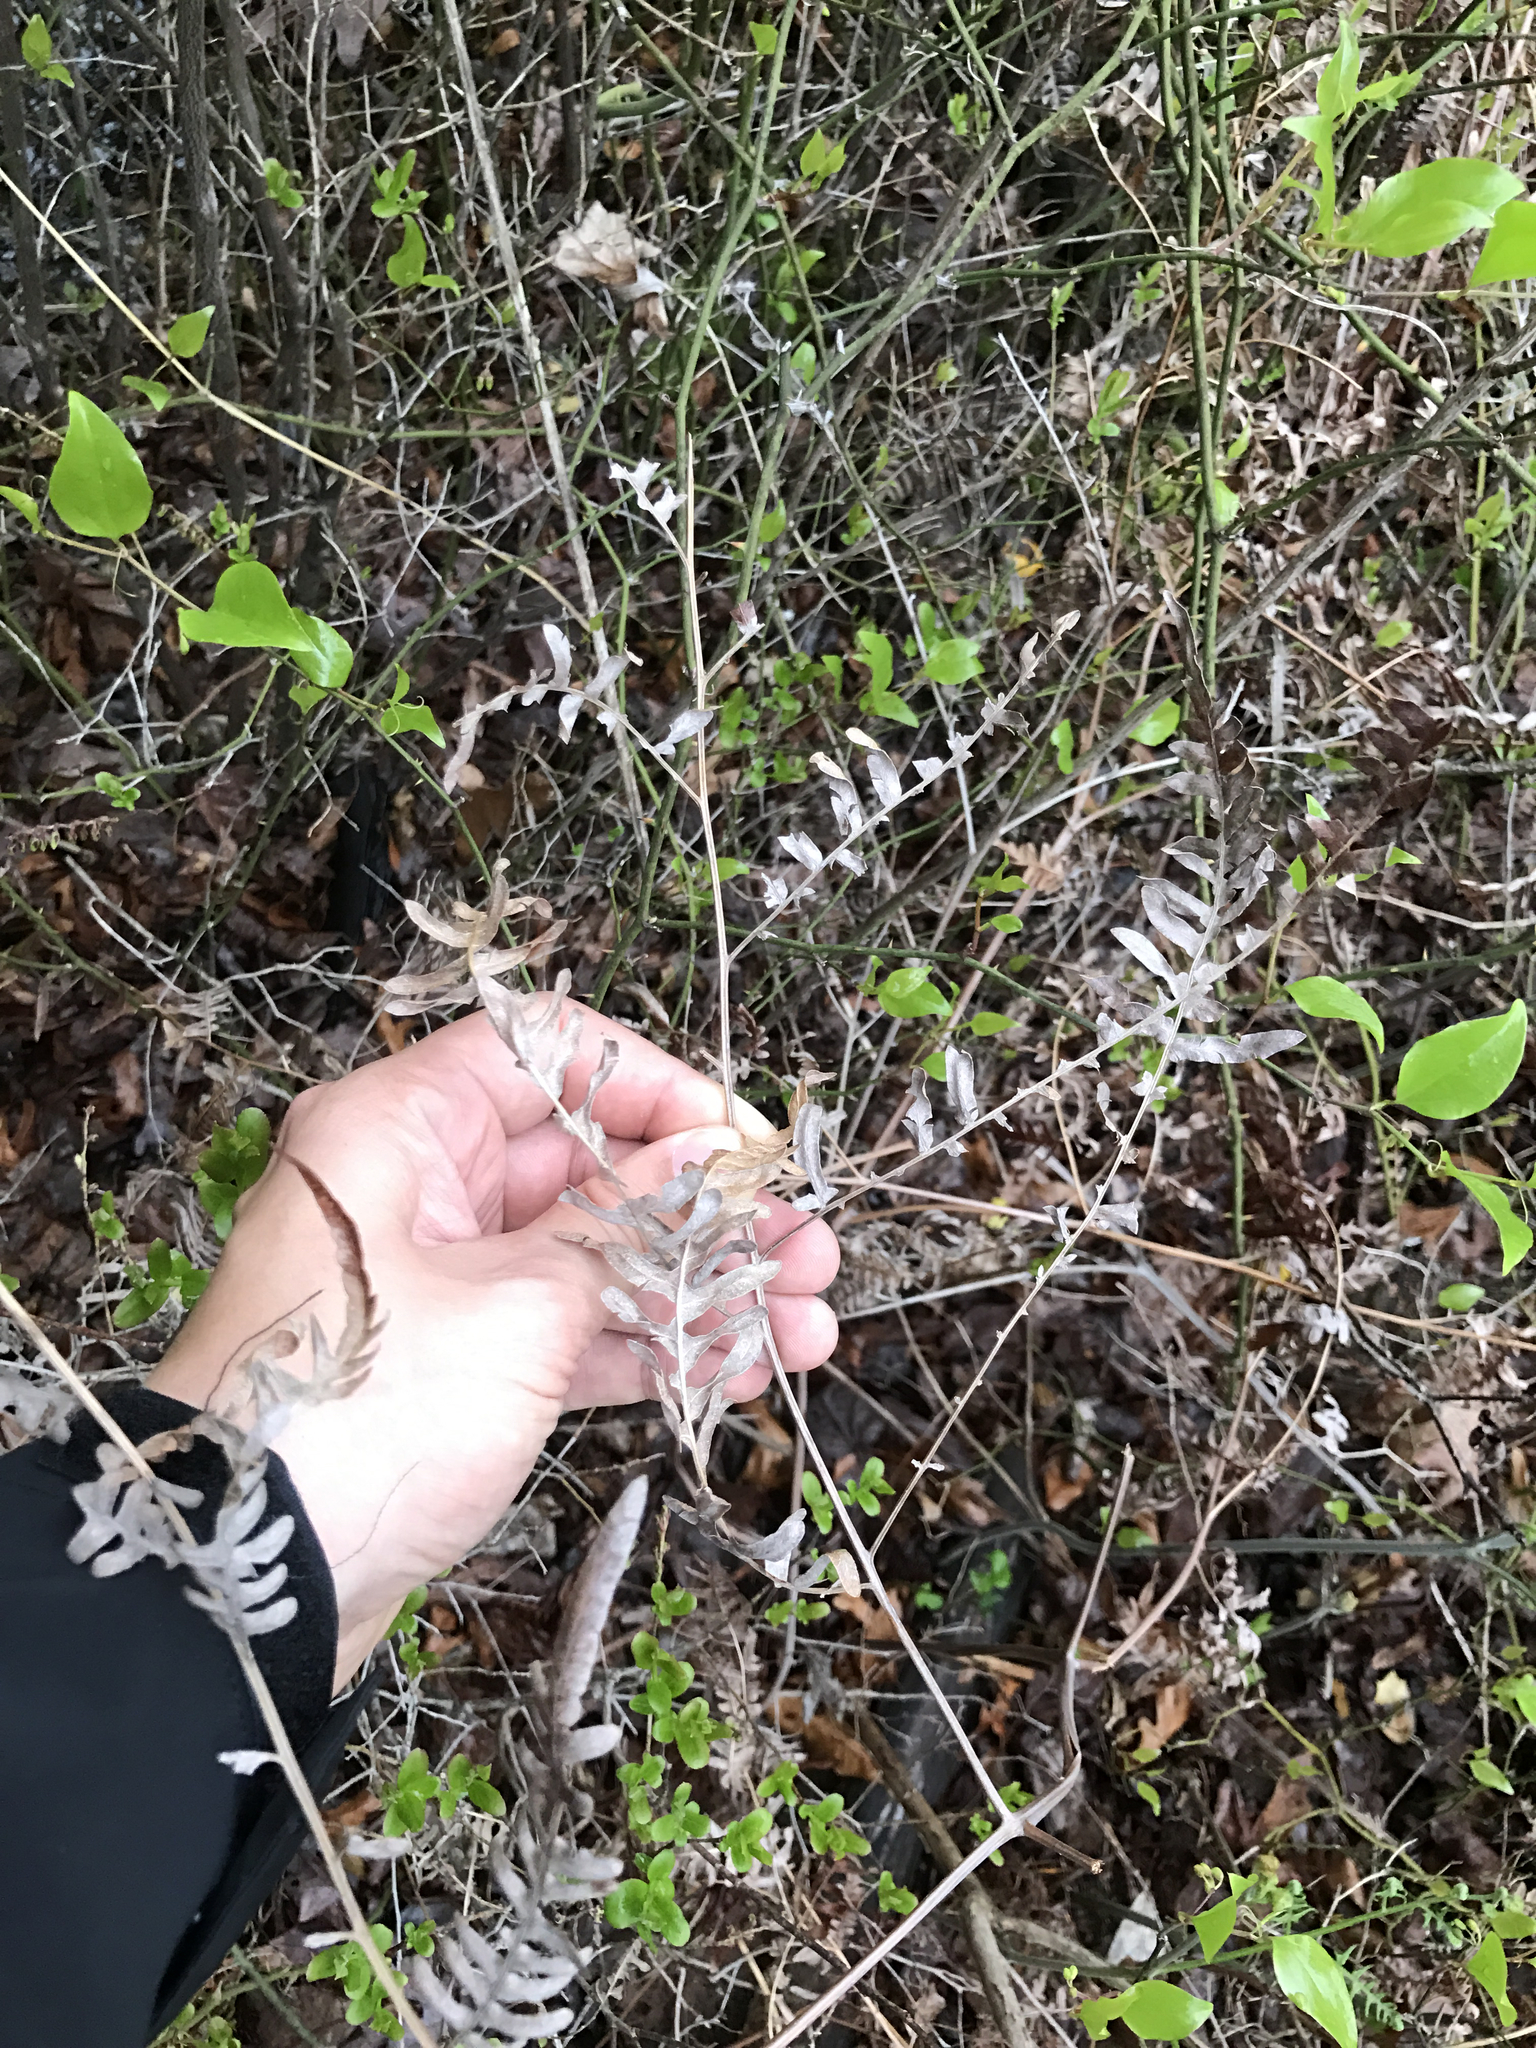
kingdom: Plantae
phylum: Tracheophyta
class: Polypodiopsida
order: Polypodiales
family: Dennstaedtiaceae
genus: Pteridium
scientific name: Pteridium aquilinum
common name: Bracken
